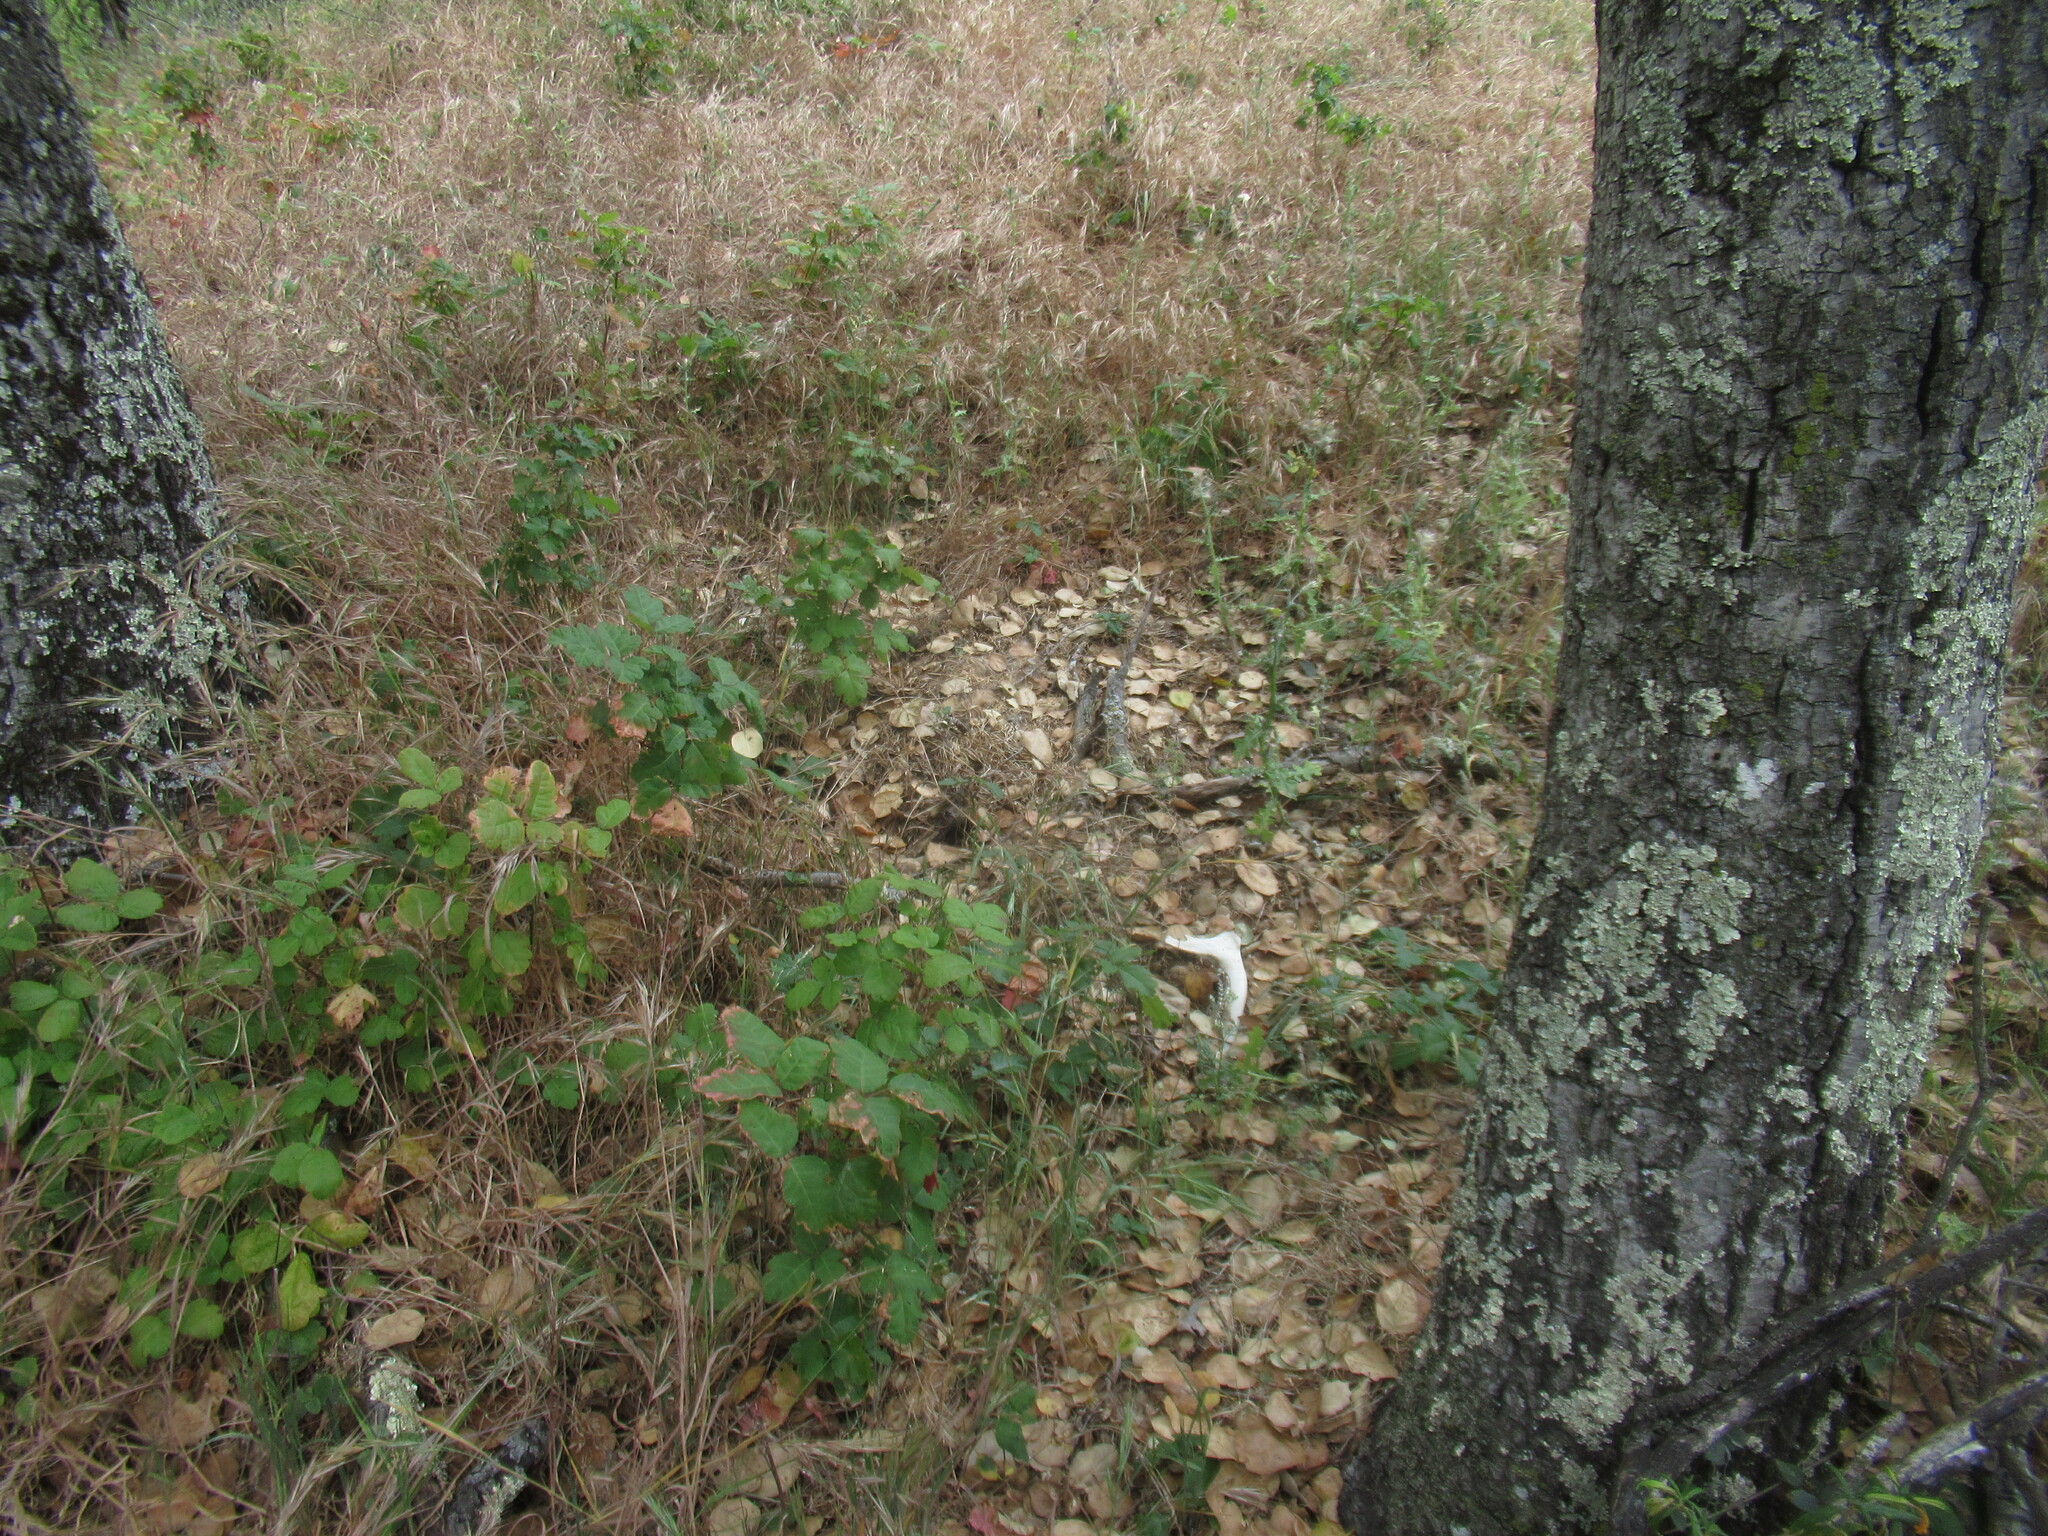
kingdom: Animalia
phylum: Chordata
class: Mammalia
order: Artiodactyla
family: Cervidae
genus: Odocoileus
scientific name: Odocoileus hemionus
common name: Mule deer
